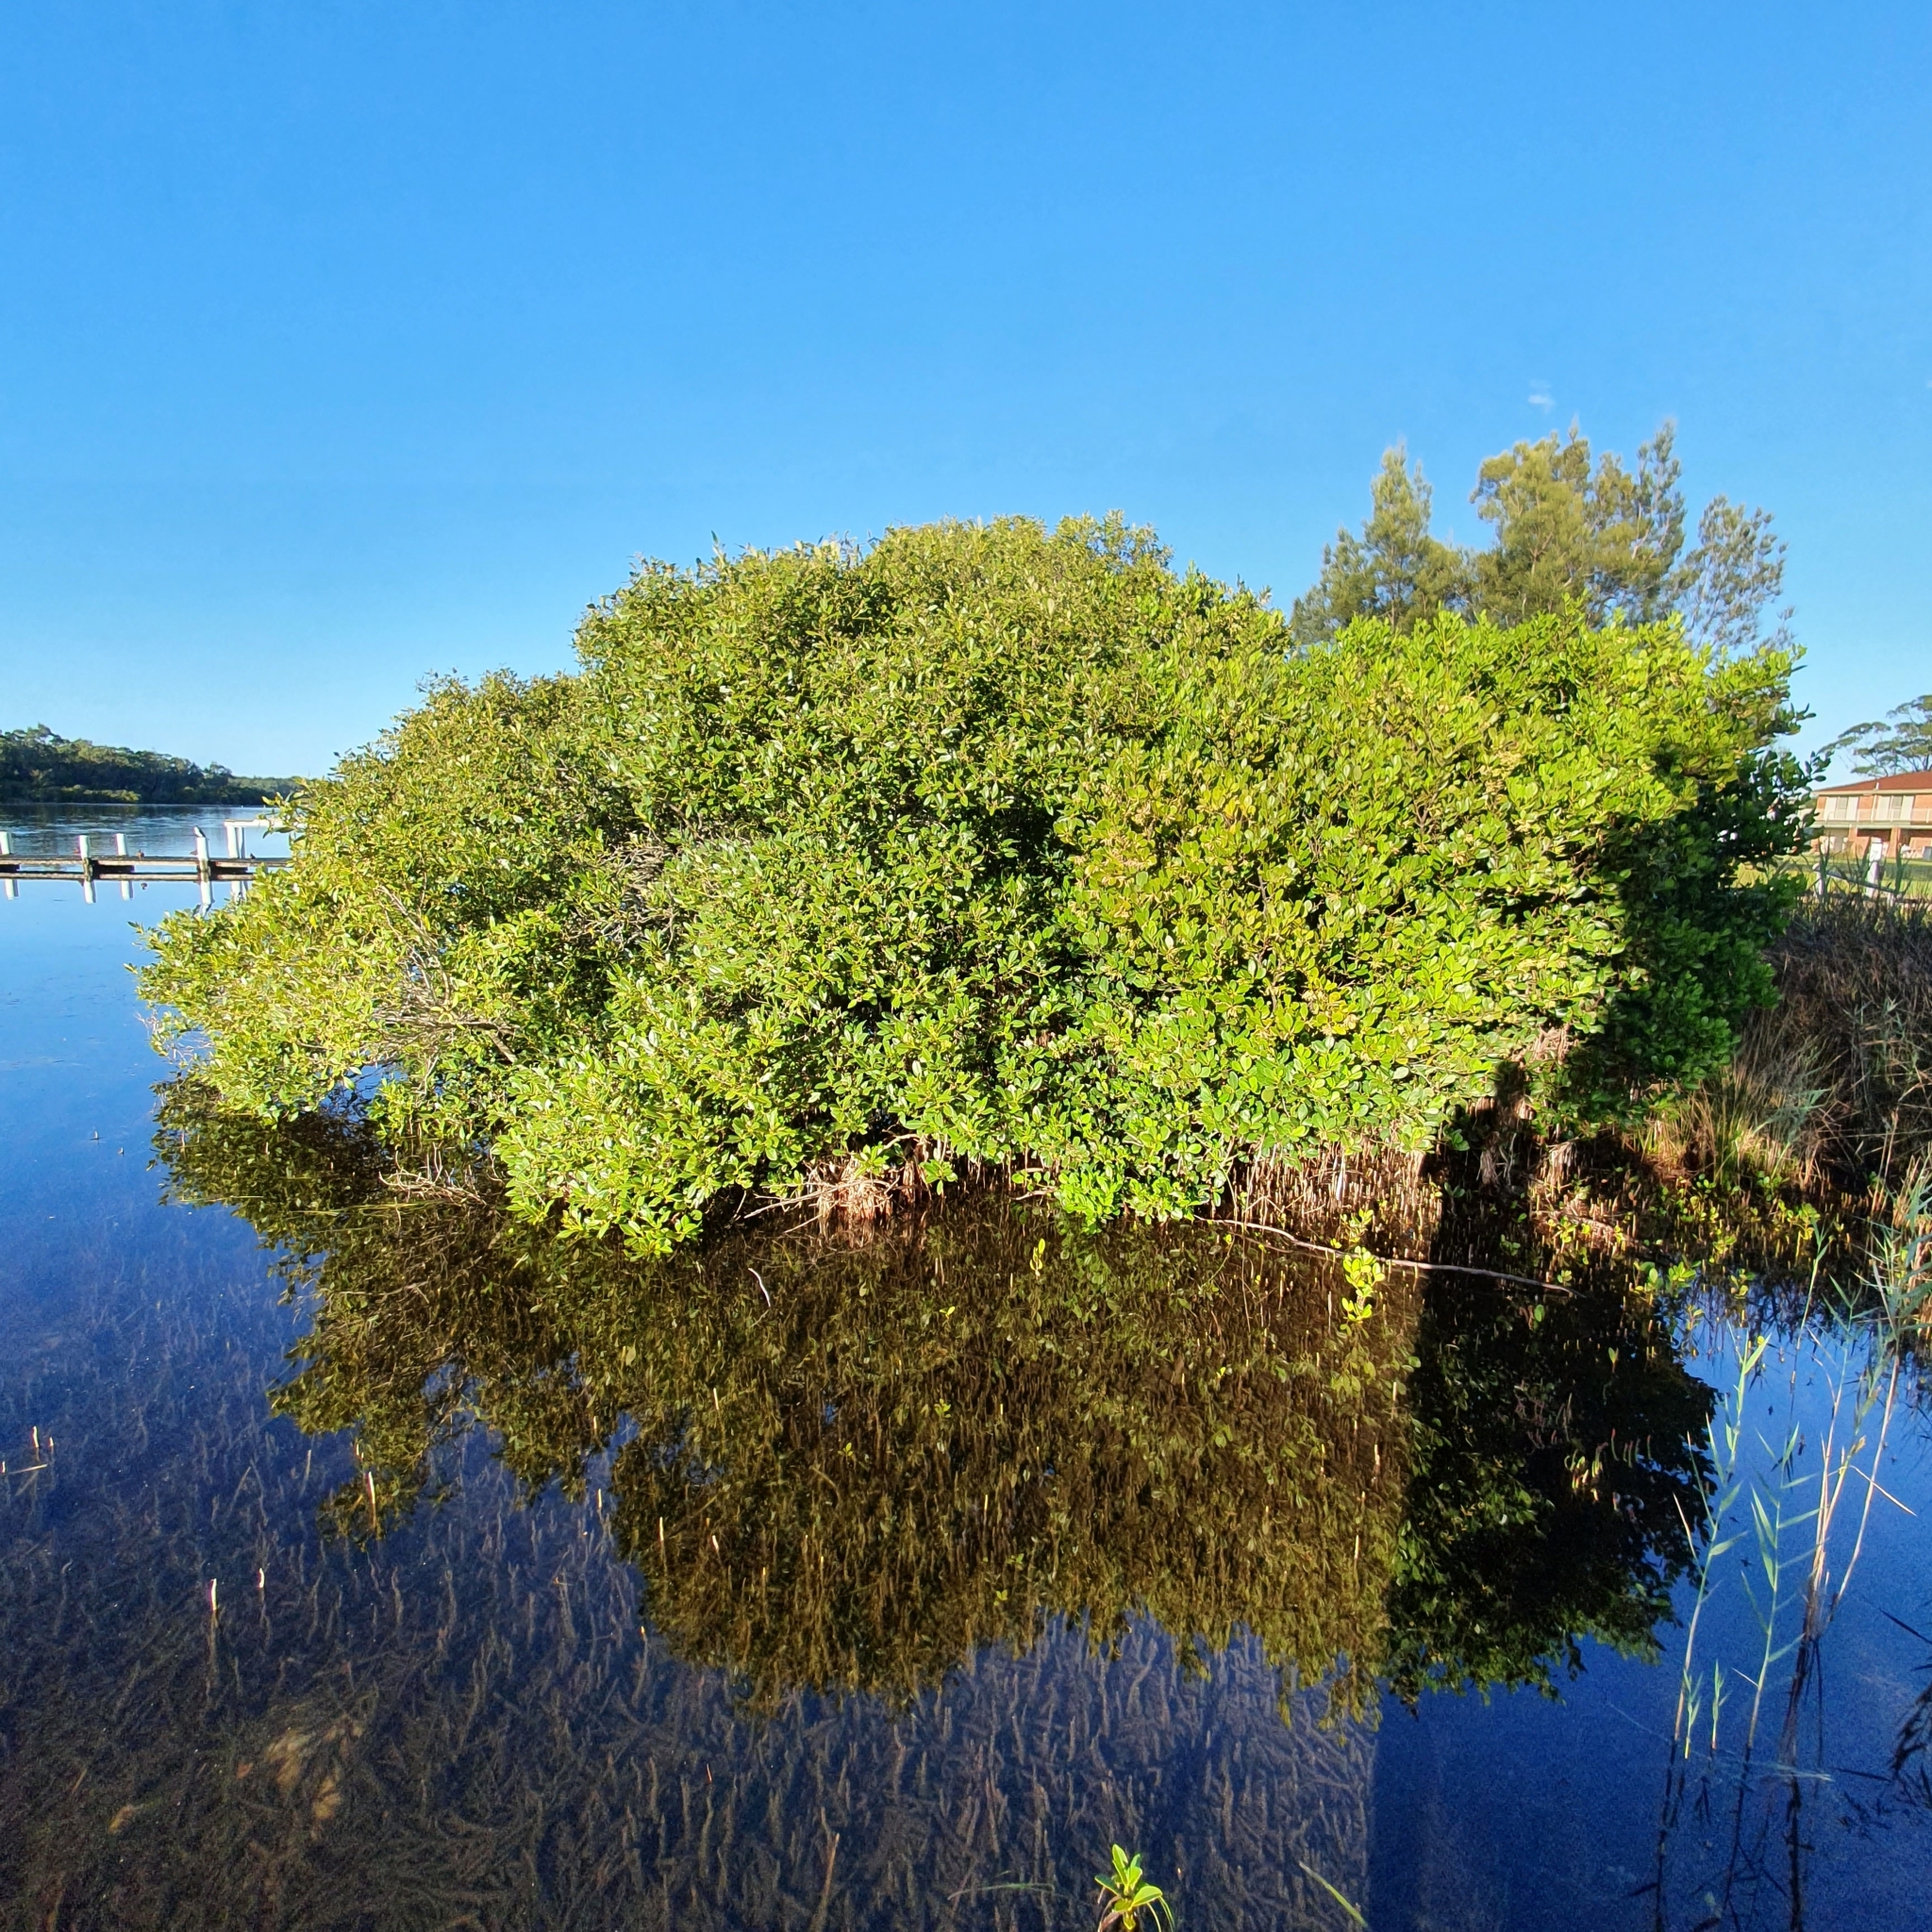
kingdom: Plantae
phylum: Tracheophyta
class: Magnoliopsida
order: Lamiales
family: Acanthaceae
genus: Avicennia
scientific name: Avicennia marina
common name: Gray mangrove
